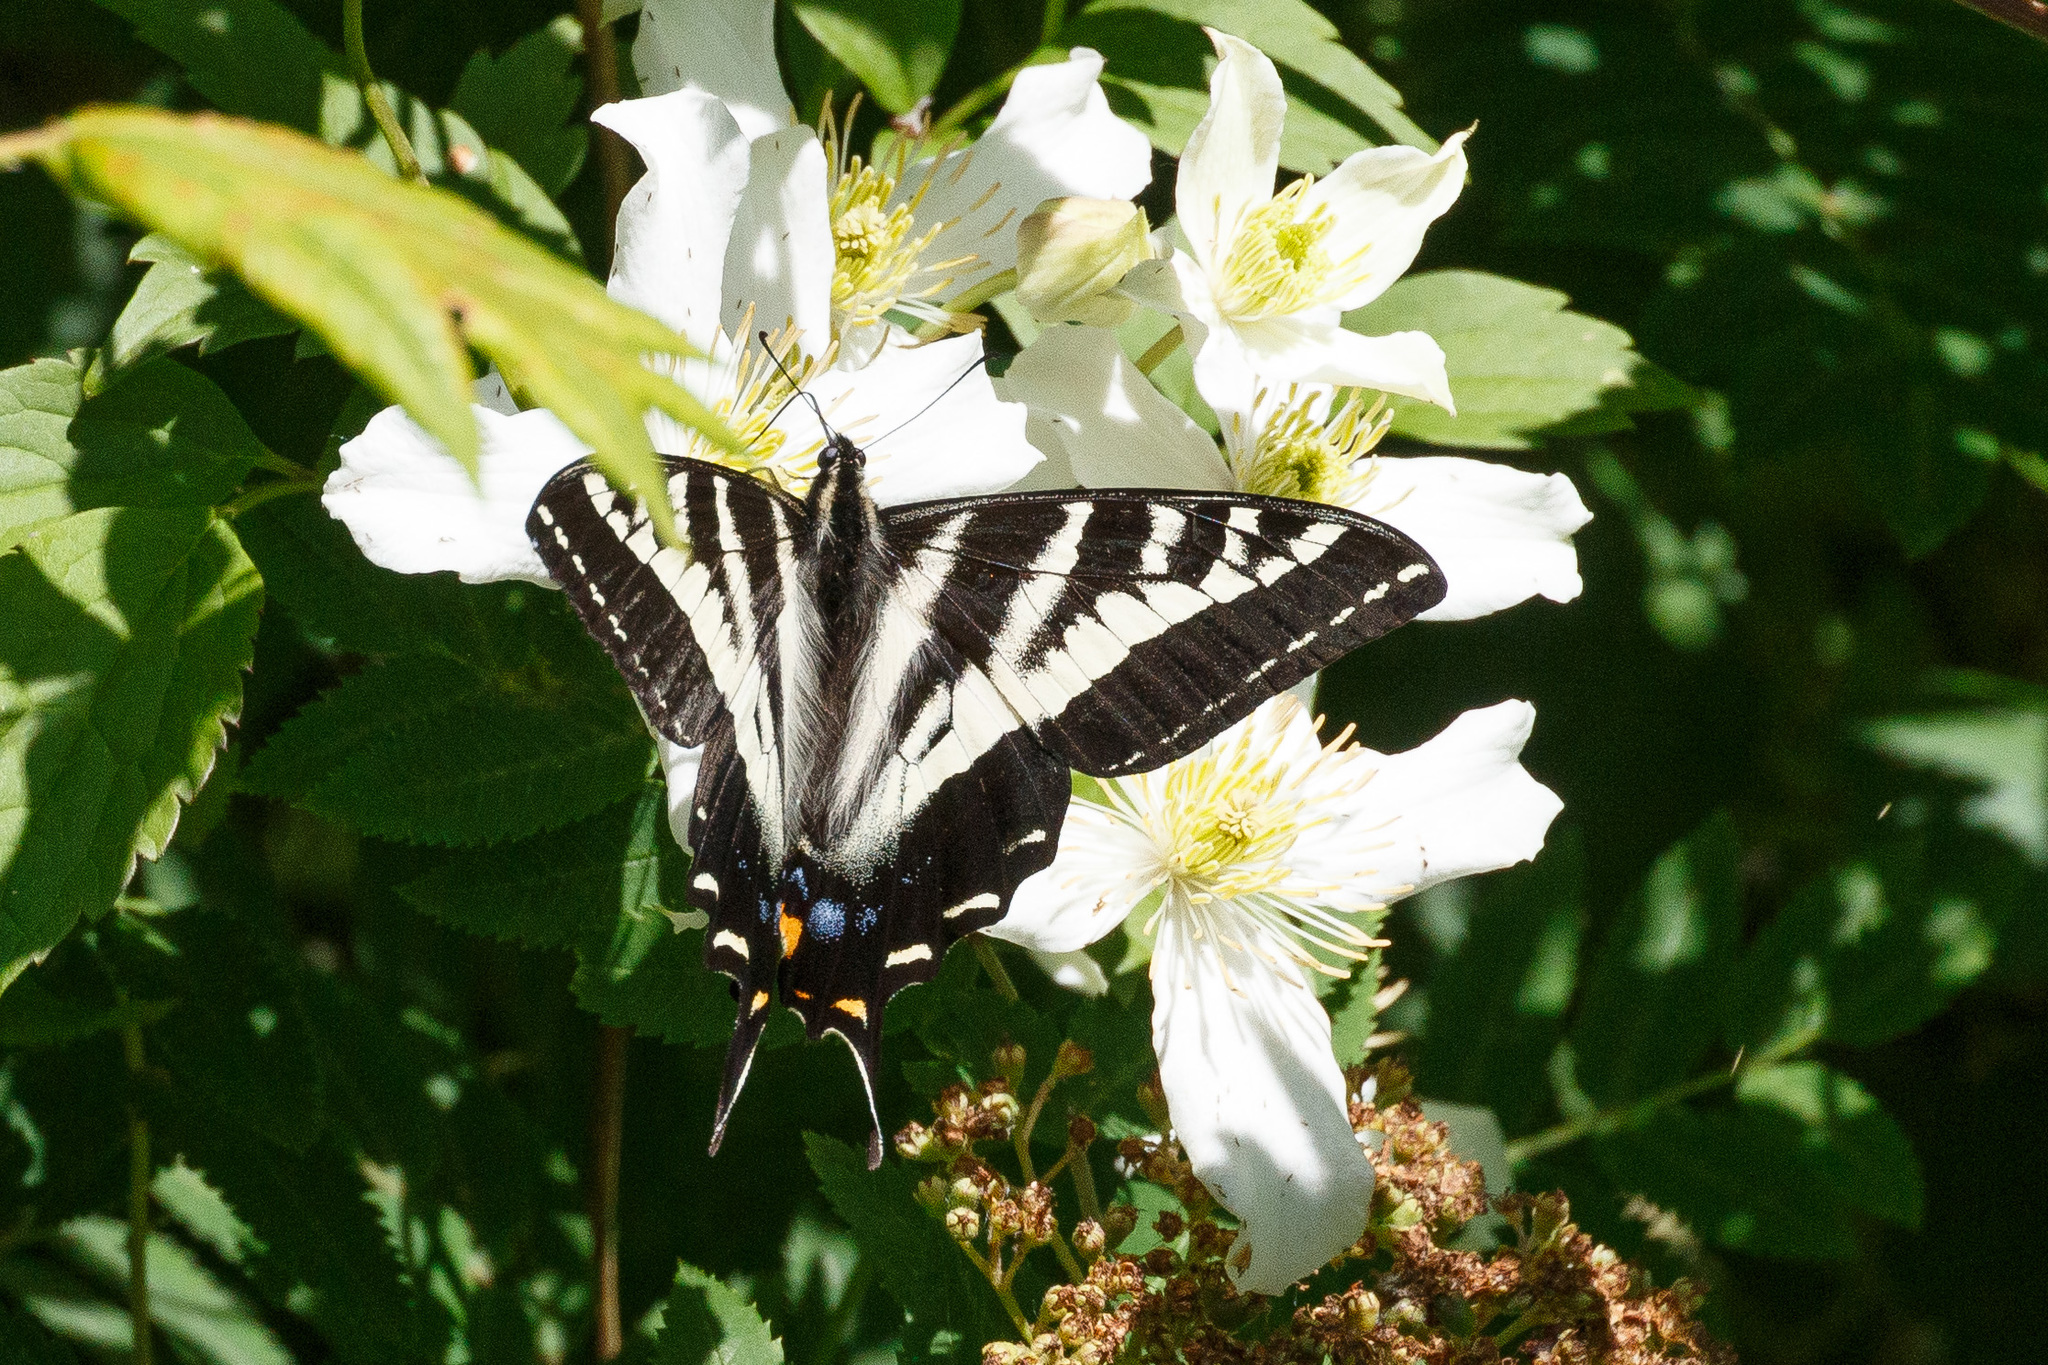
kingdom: Animalia
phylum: Arthropoda
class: Insecta
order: Lepidoptera
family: Papilionidae
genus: Papilio
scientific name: Papilio eurymedon
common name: Pale tiger swallowtail
